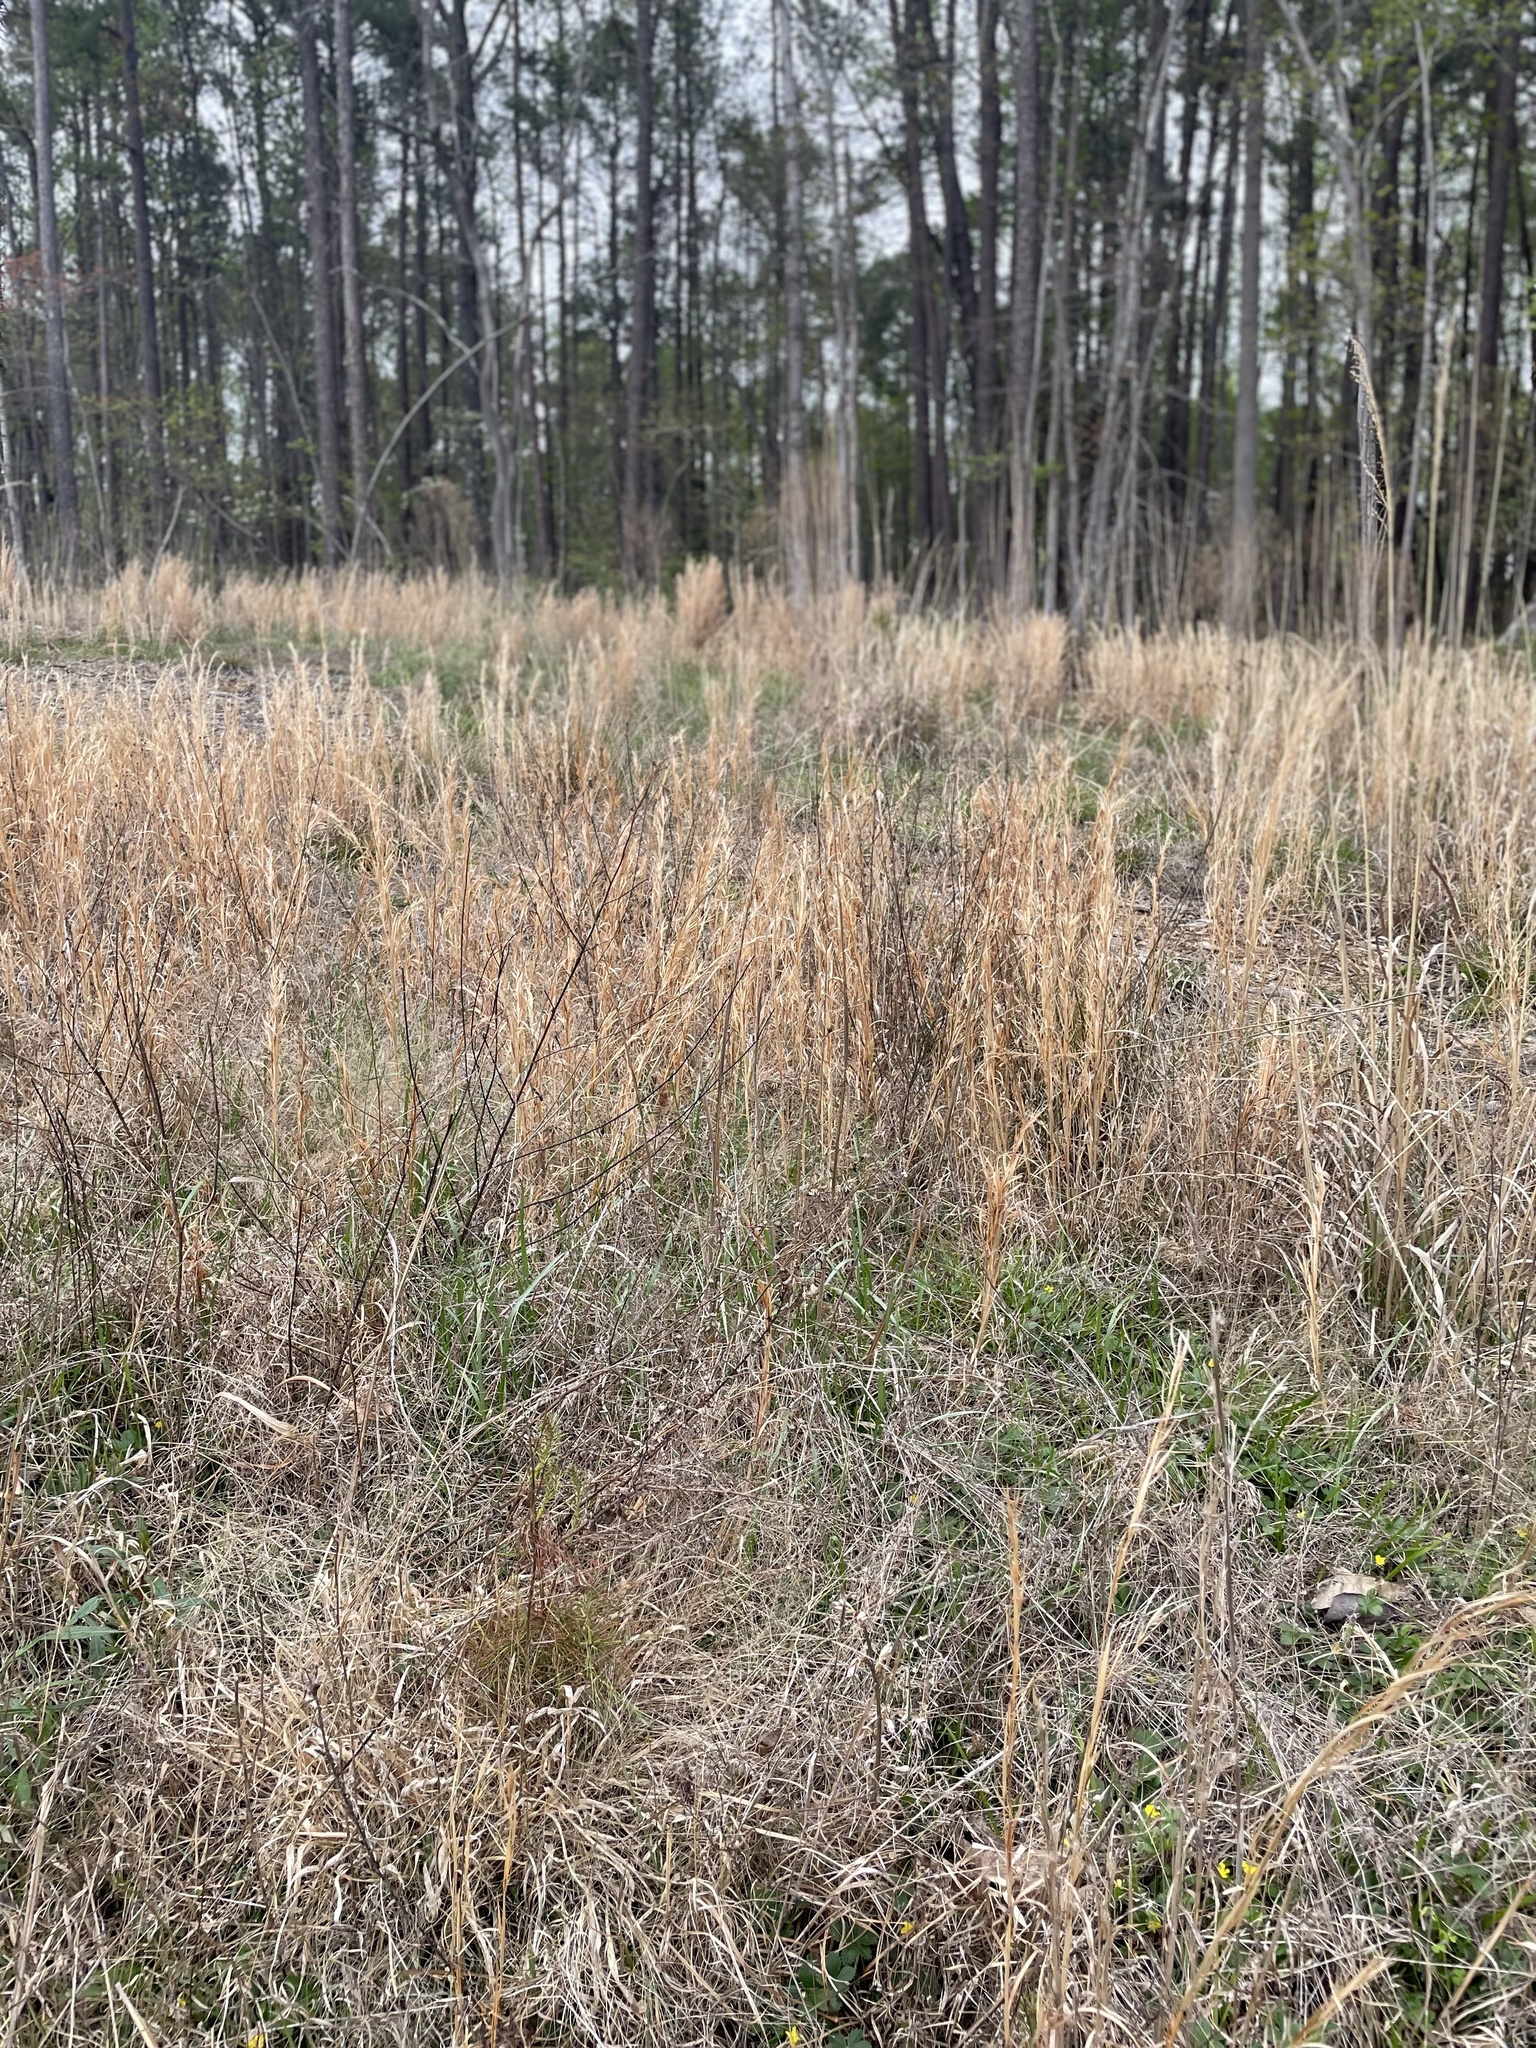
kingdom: Plantae
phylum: Tracheophyta
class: Liliopsida
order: Poales
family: Poaceae
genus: Andropogon
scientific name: Andropogon virginicus
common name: Broomsedge bluestem
